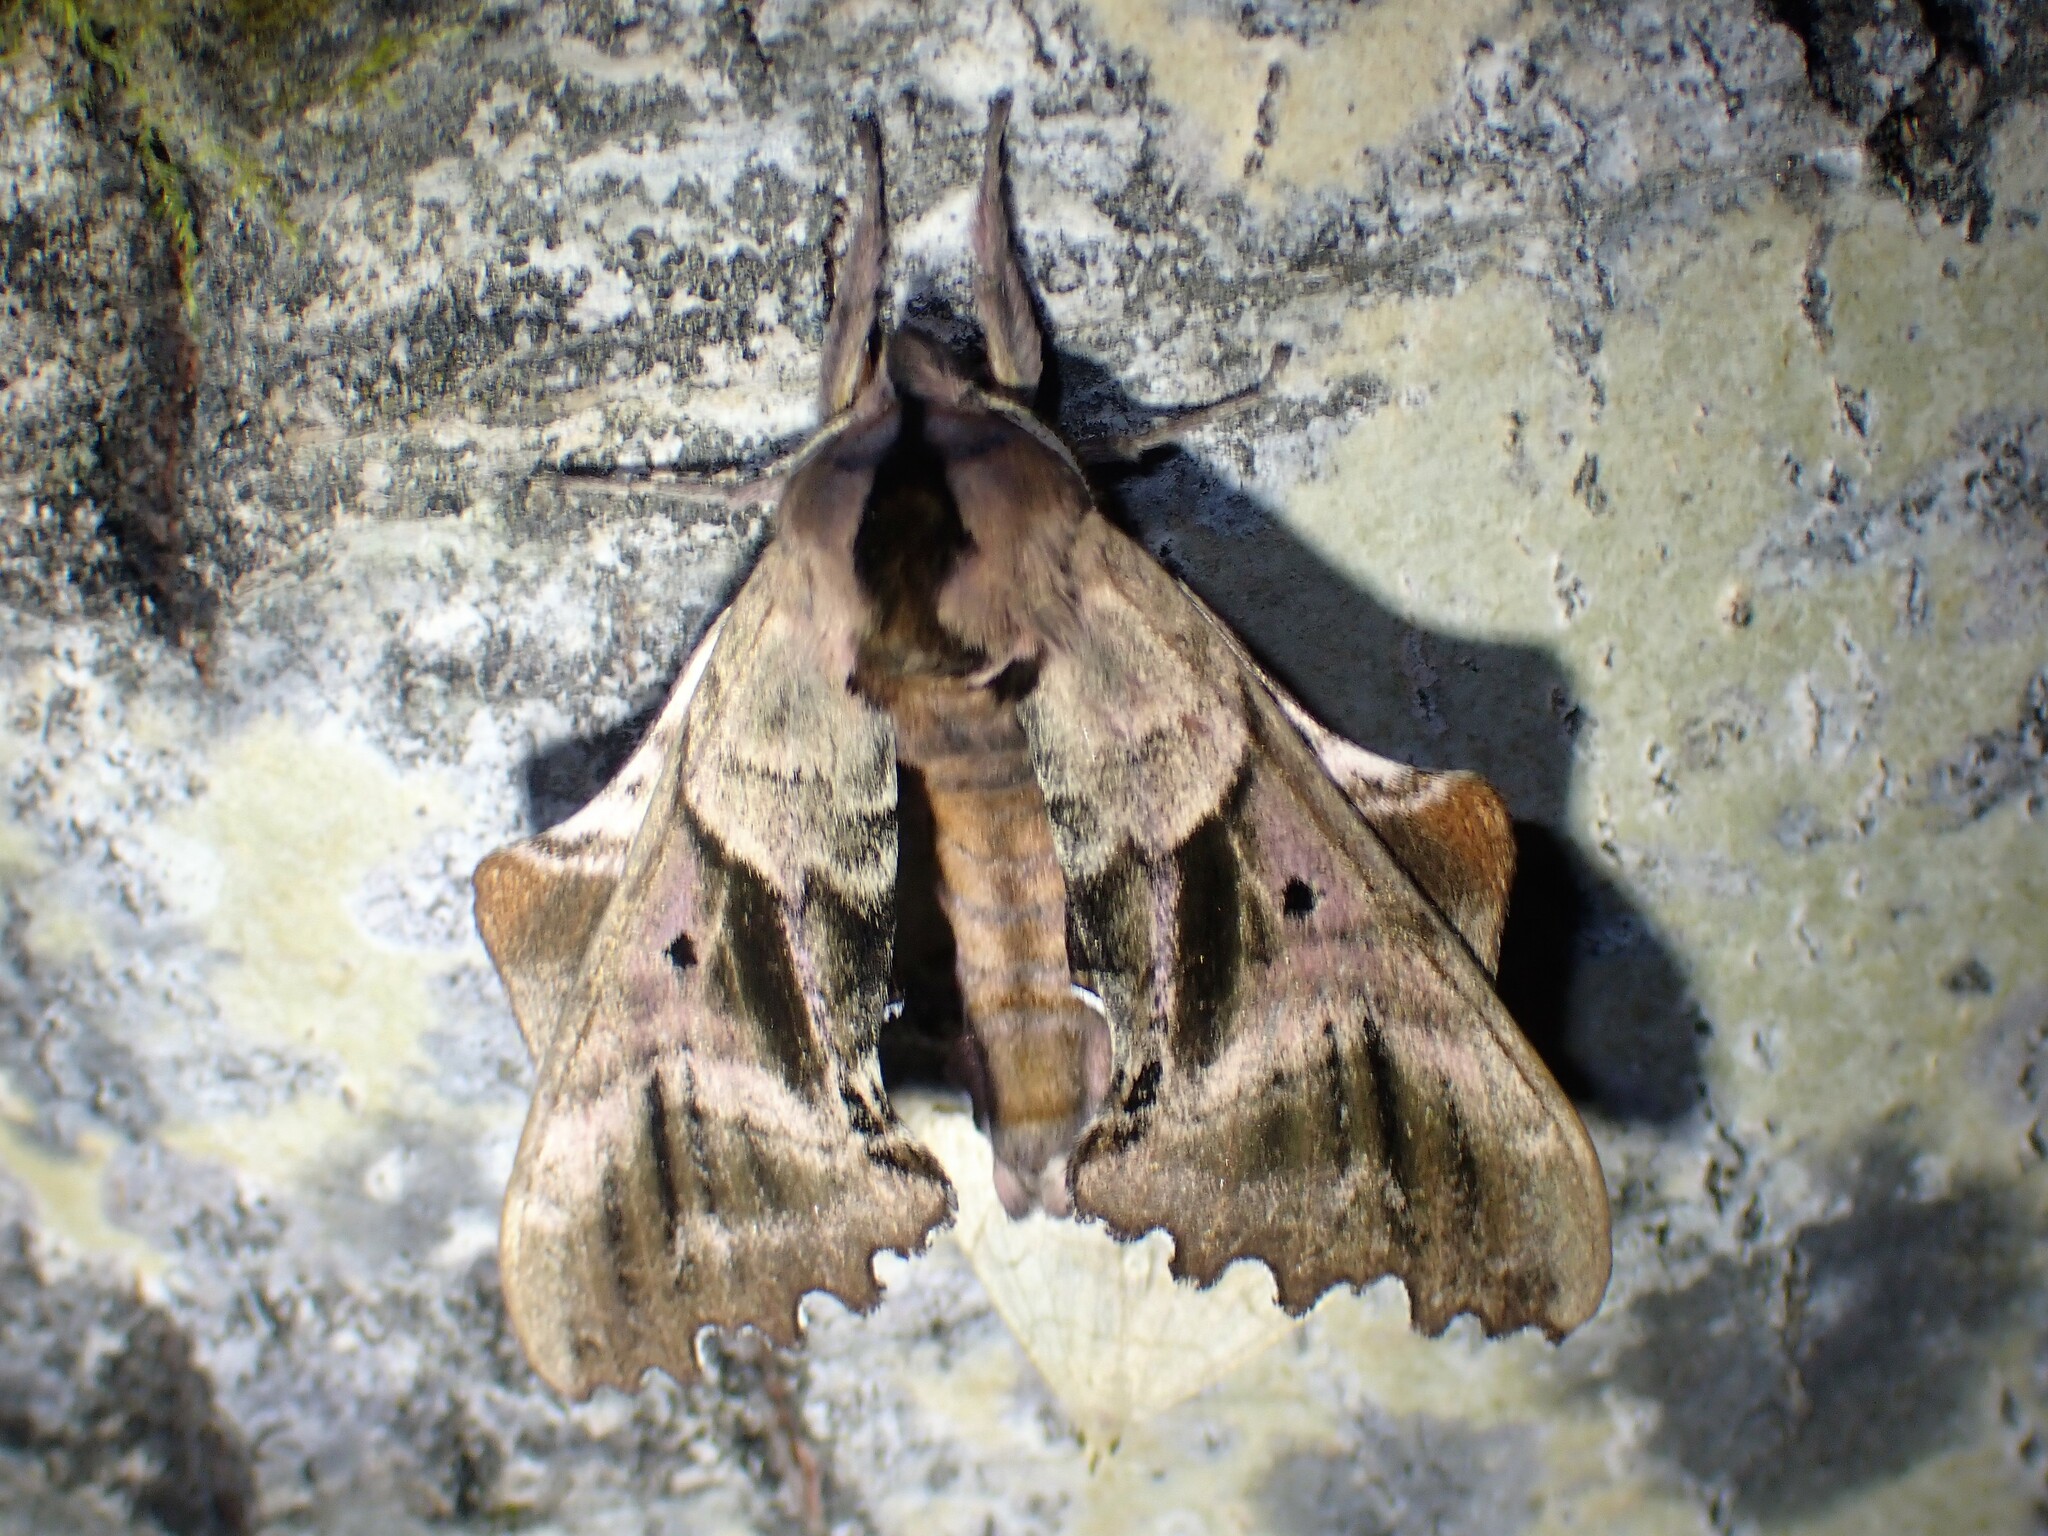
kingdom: Animalia
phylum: Arthropoda
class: Insecta
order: Lepidoptera
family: Sphingidae
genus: Paonias
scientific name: Paonias excaecata
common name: Blind-eyed sphinx
